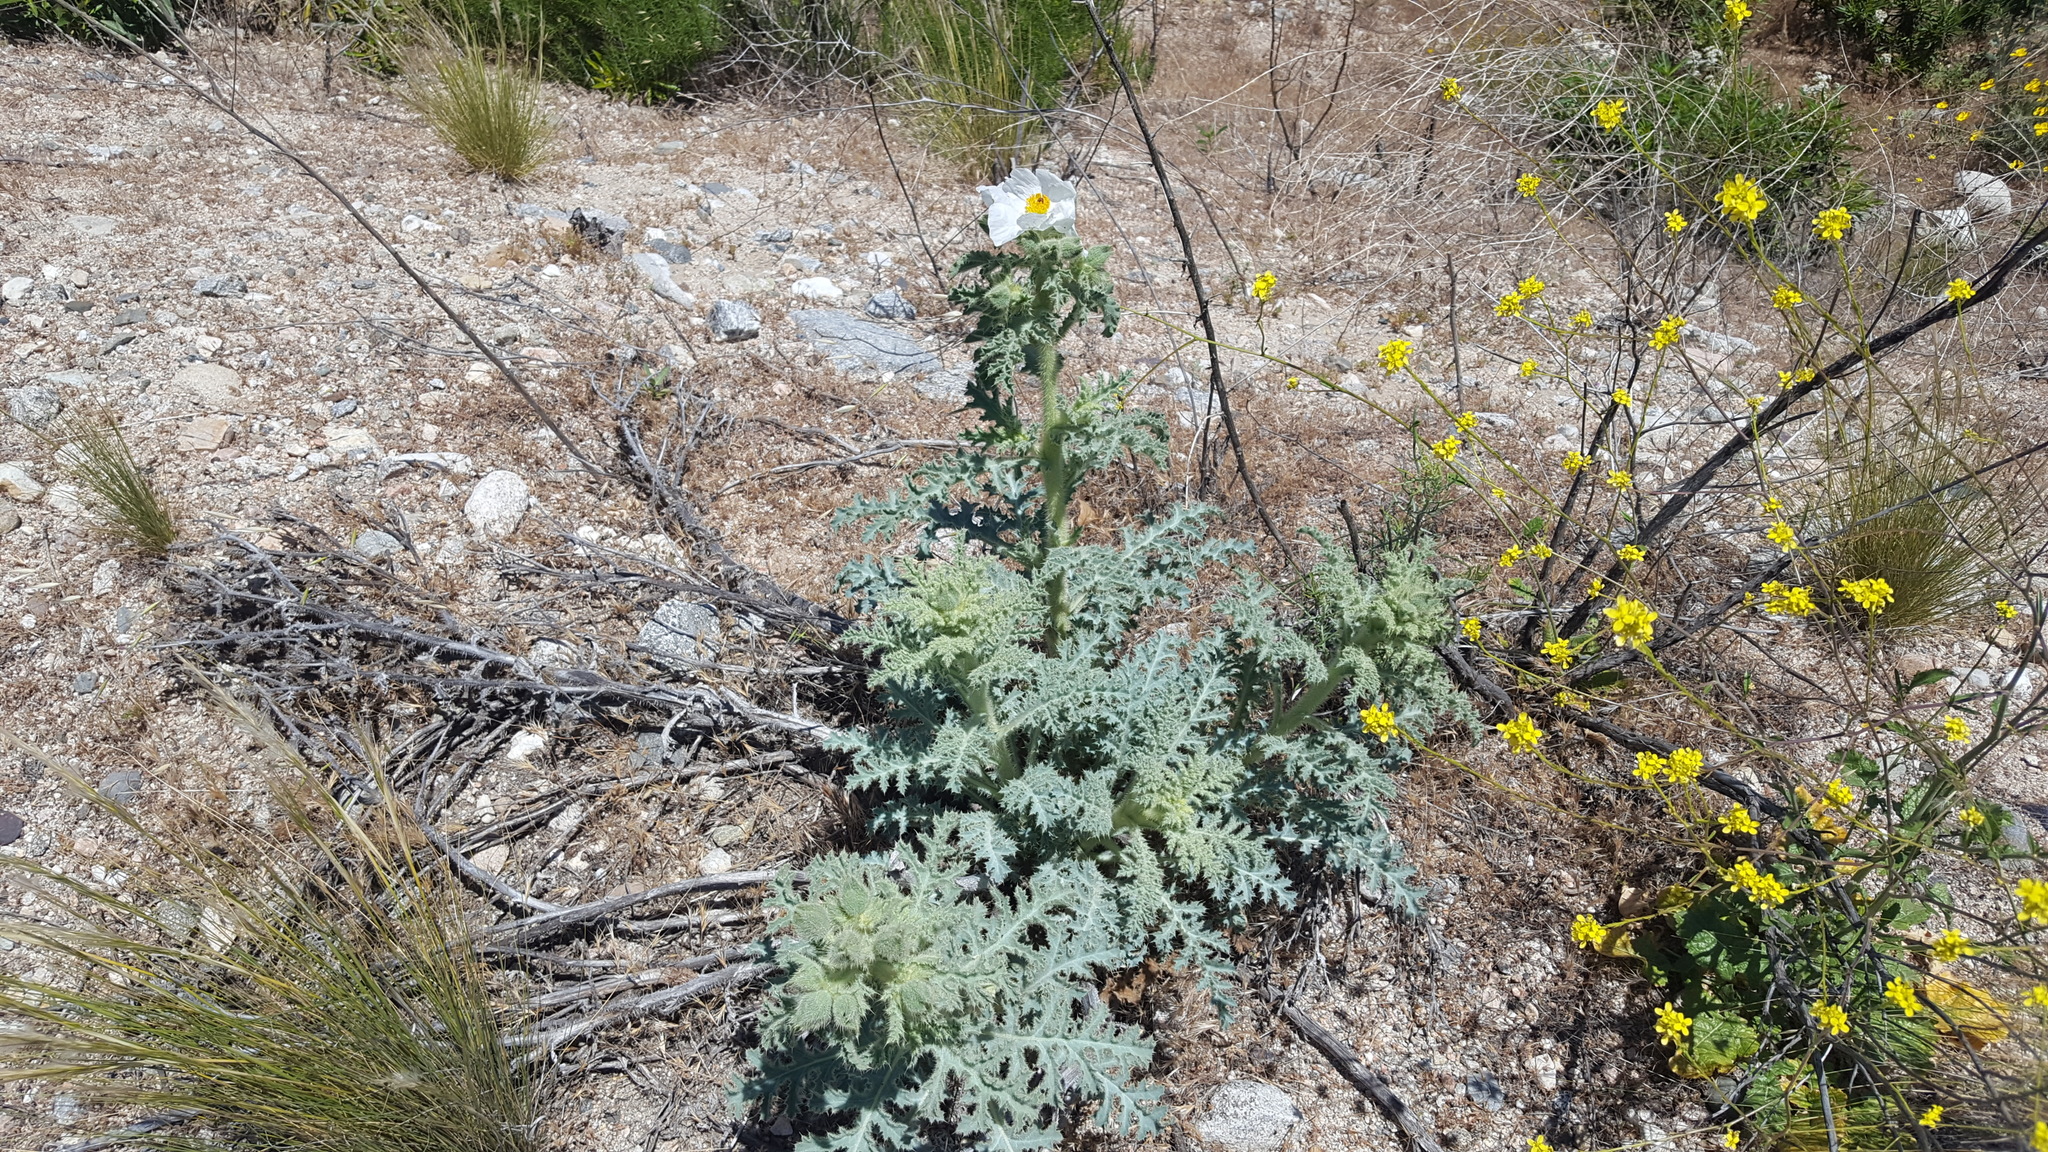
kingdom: Plantae
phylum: Tracheophyta
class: Magnoliopsida
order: Ranunculales
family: Papaveraceae
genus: Argemone
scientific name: Argemone munita
